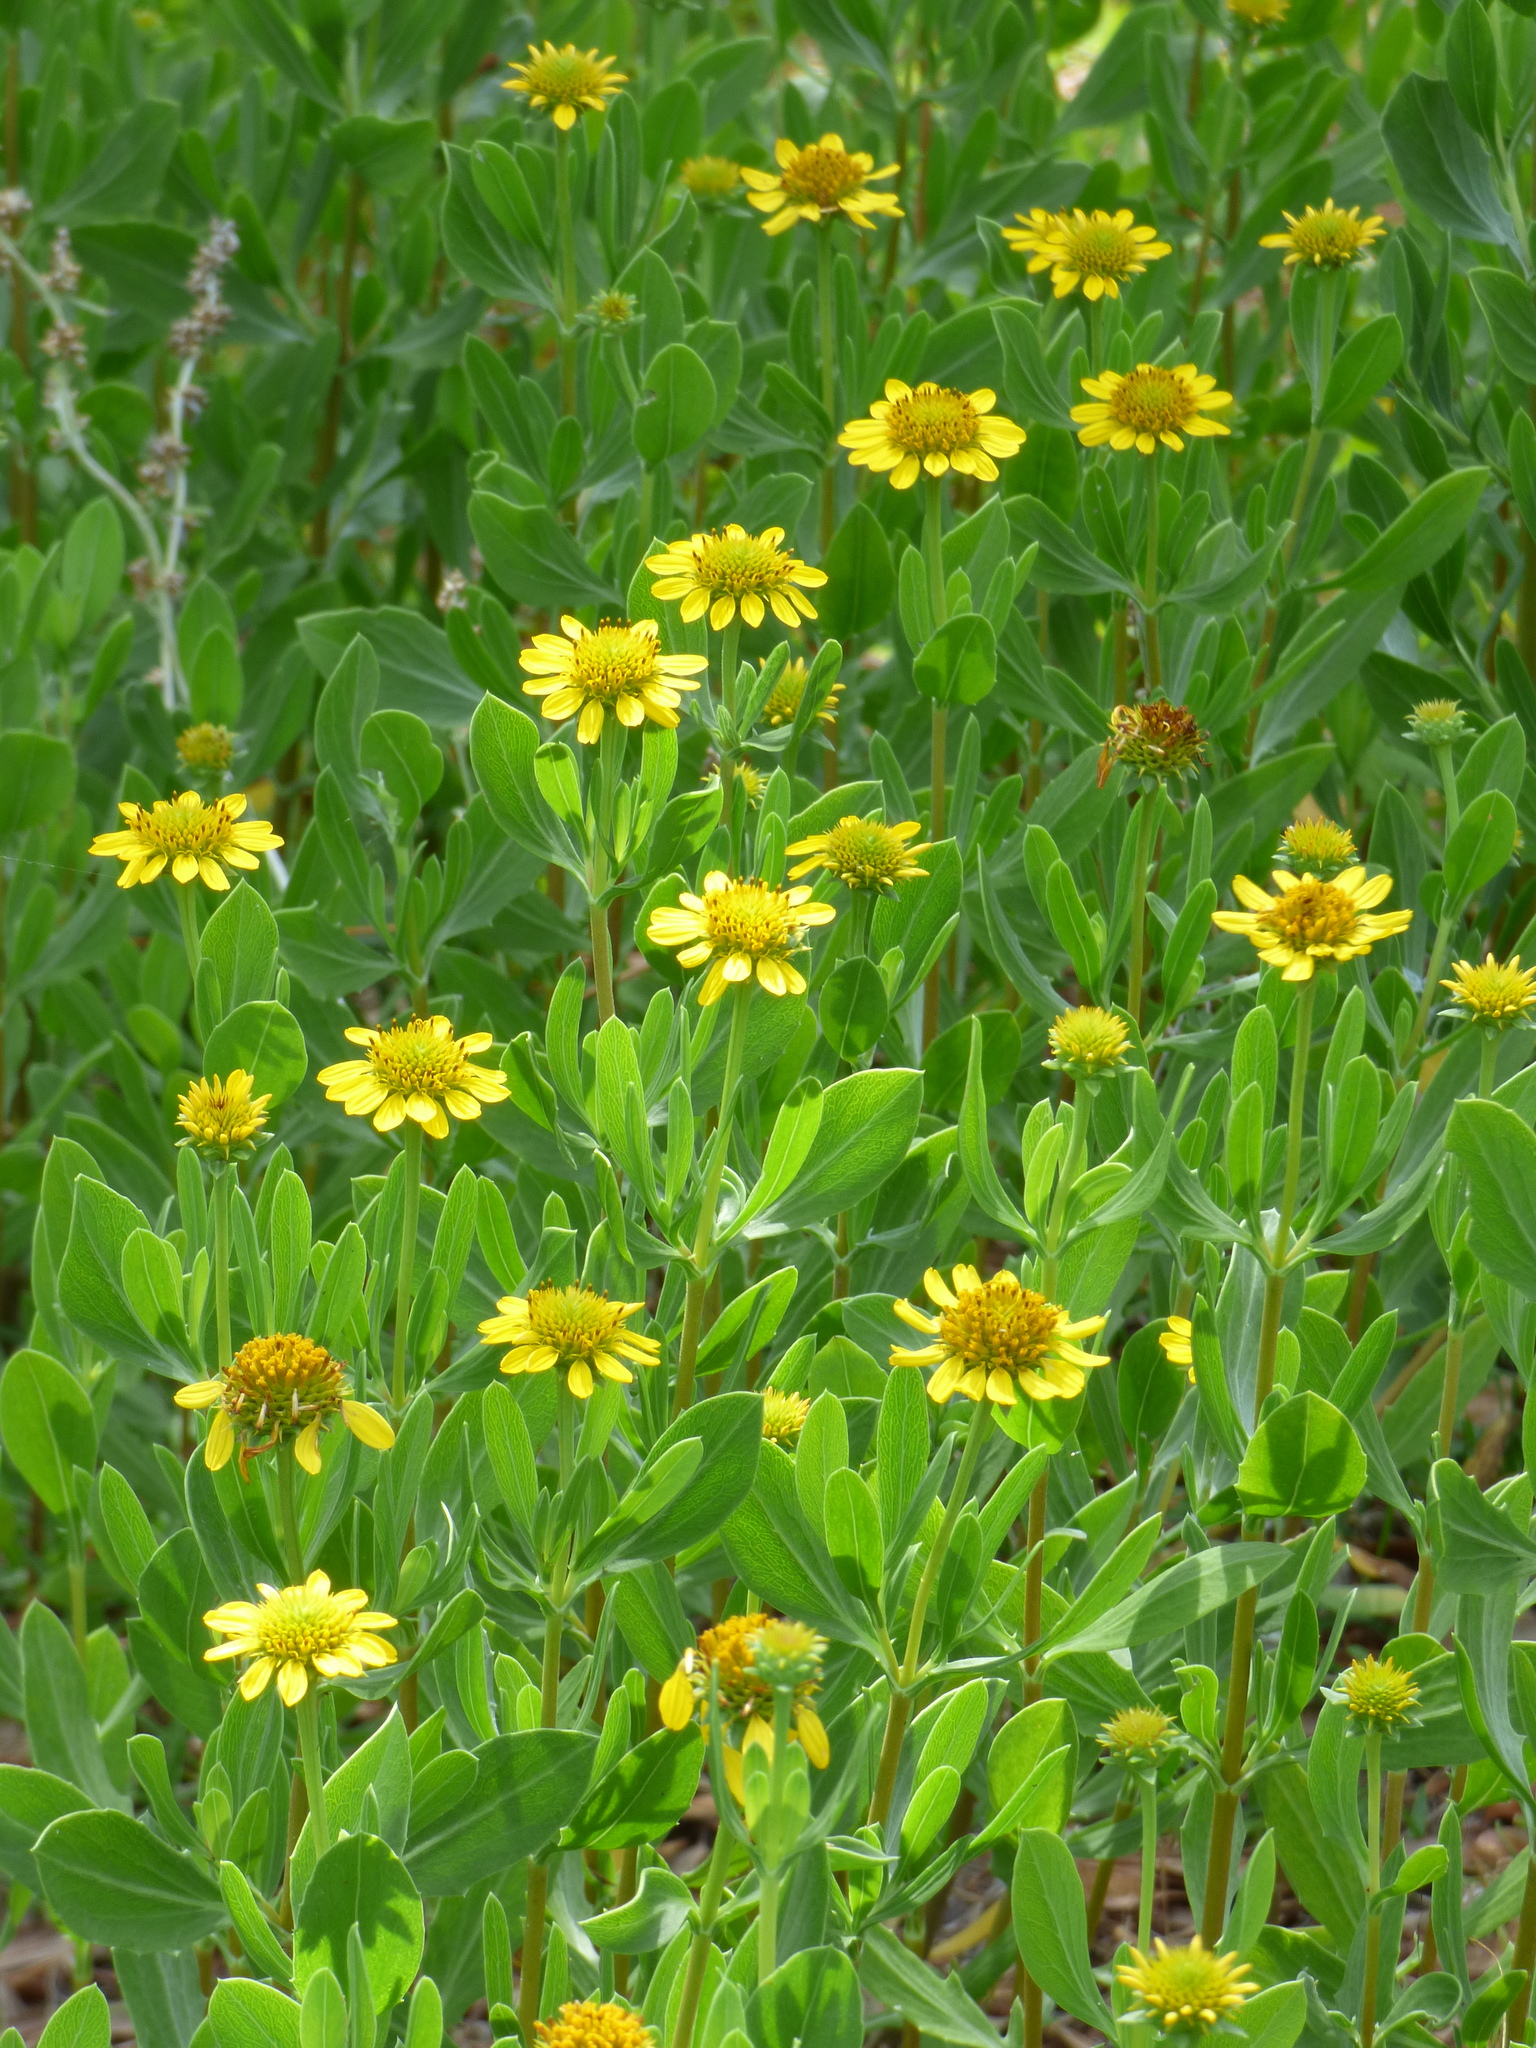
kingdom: Plantae
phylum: Tracheophyta
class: Magnoliopsida
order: Asterales
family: Asteraceae
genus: Borrichia
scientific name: Borrichia frutescens
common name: Sea oxeye
